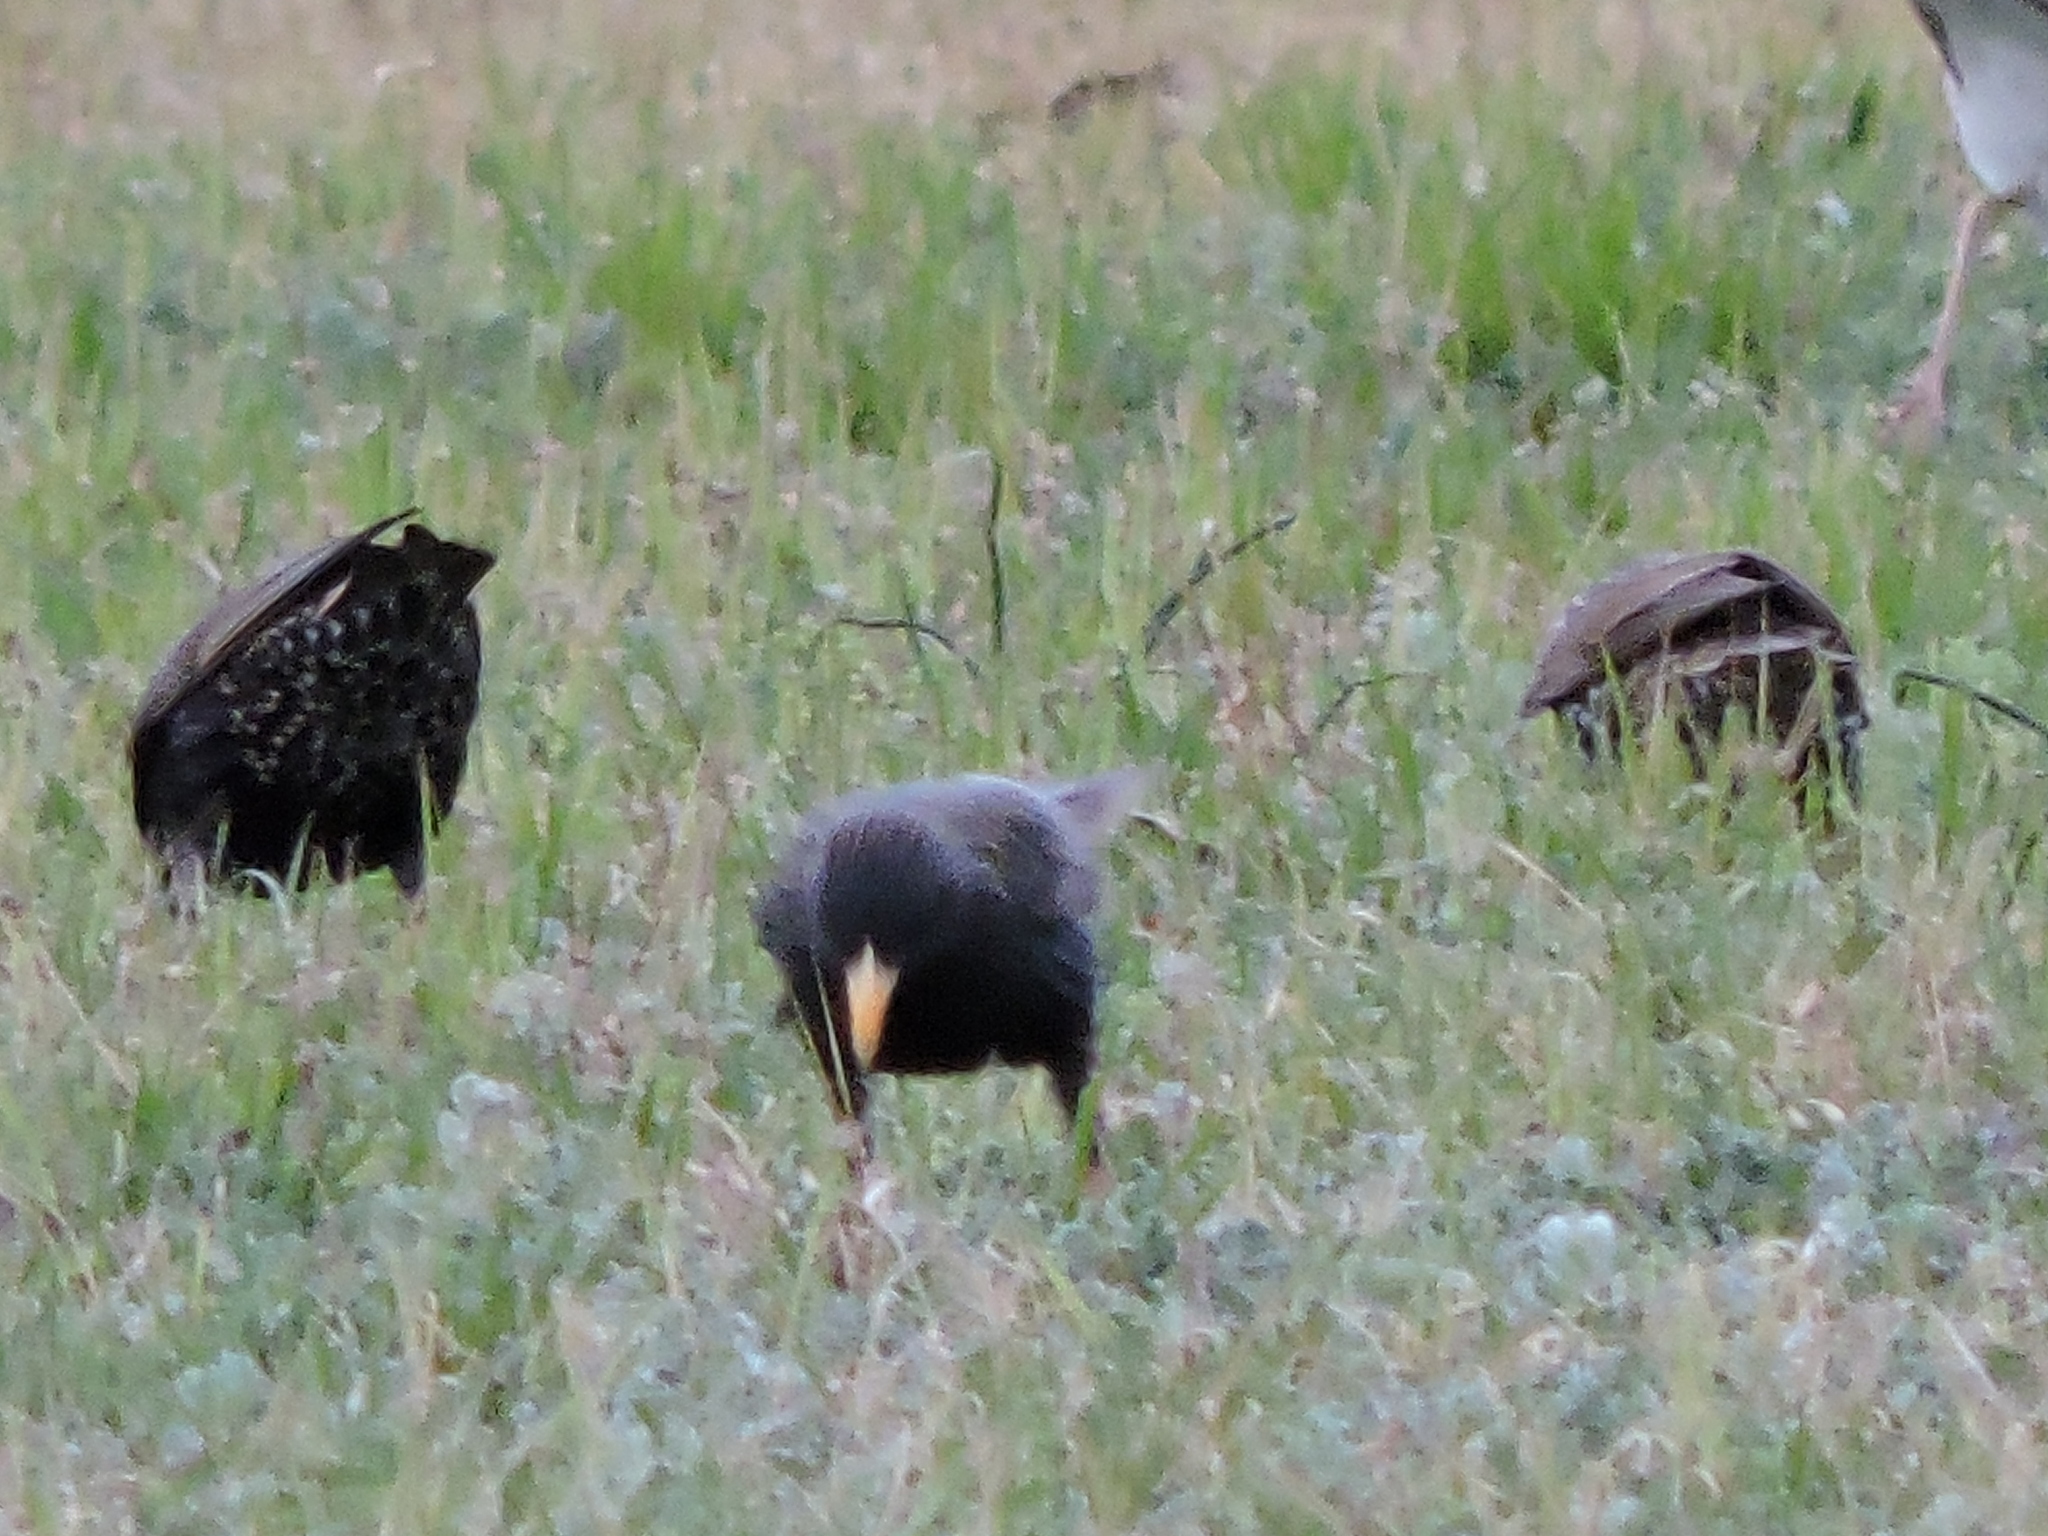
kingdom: Animalia
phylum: Chordata
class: Aves
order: Passeriformes
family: Sturnidae
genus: Sturnus
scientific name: Sturnus vulgaris
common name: Common starling
